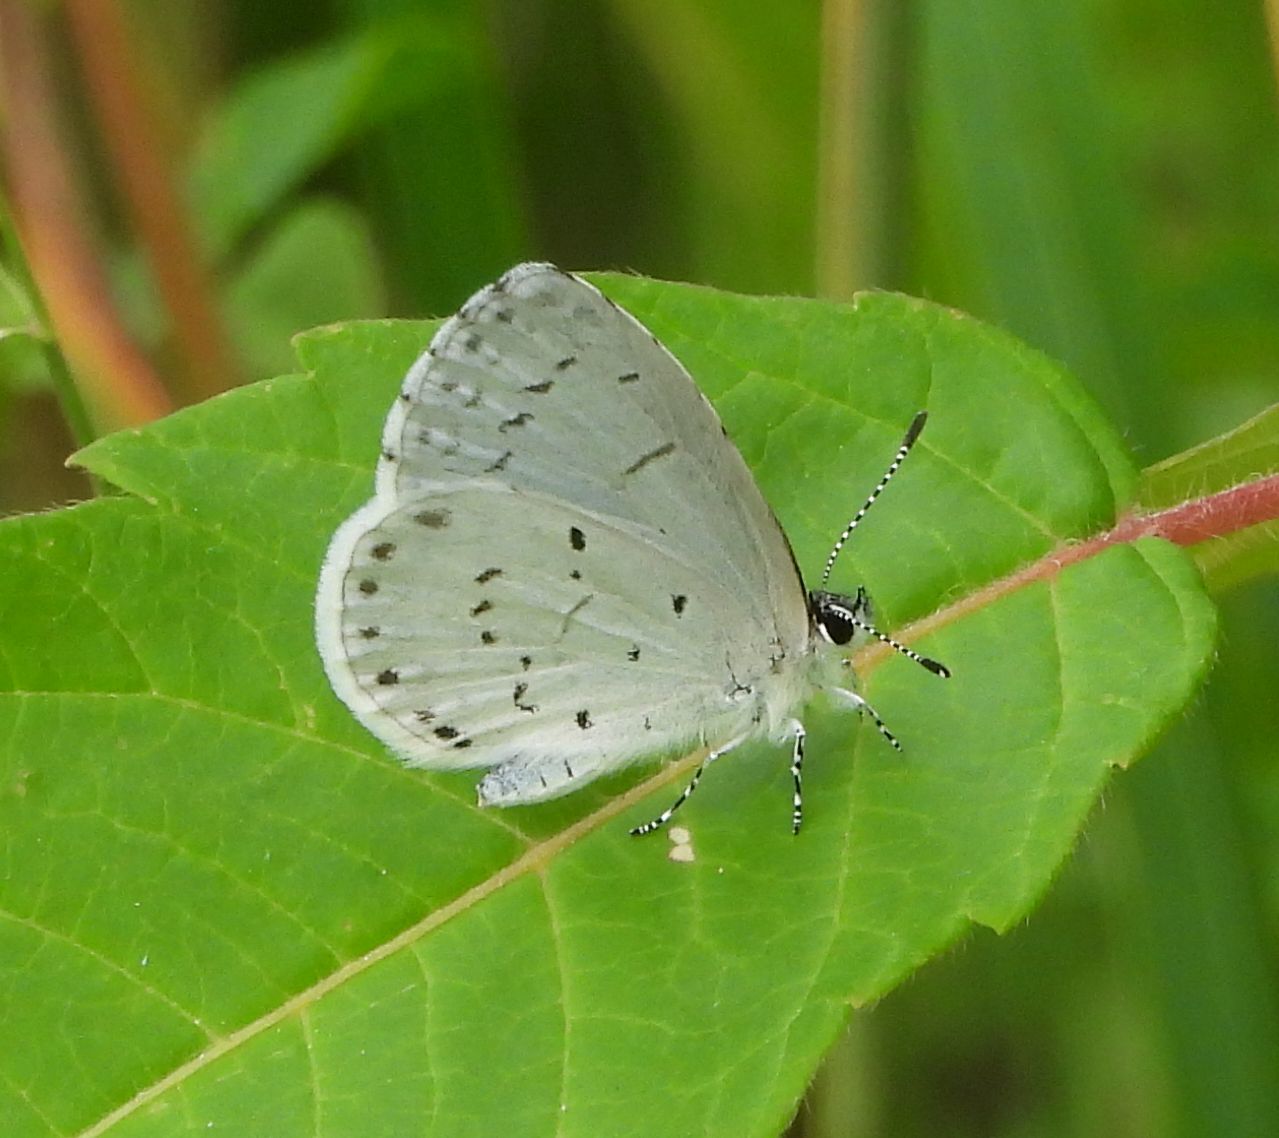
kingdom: Animalia
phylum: Arthropoda
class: Insecta
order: Lepidoptera
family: Lycaenidae
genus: Celastrina
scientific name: Celastrina
